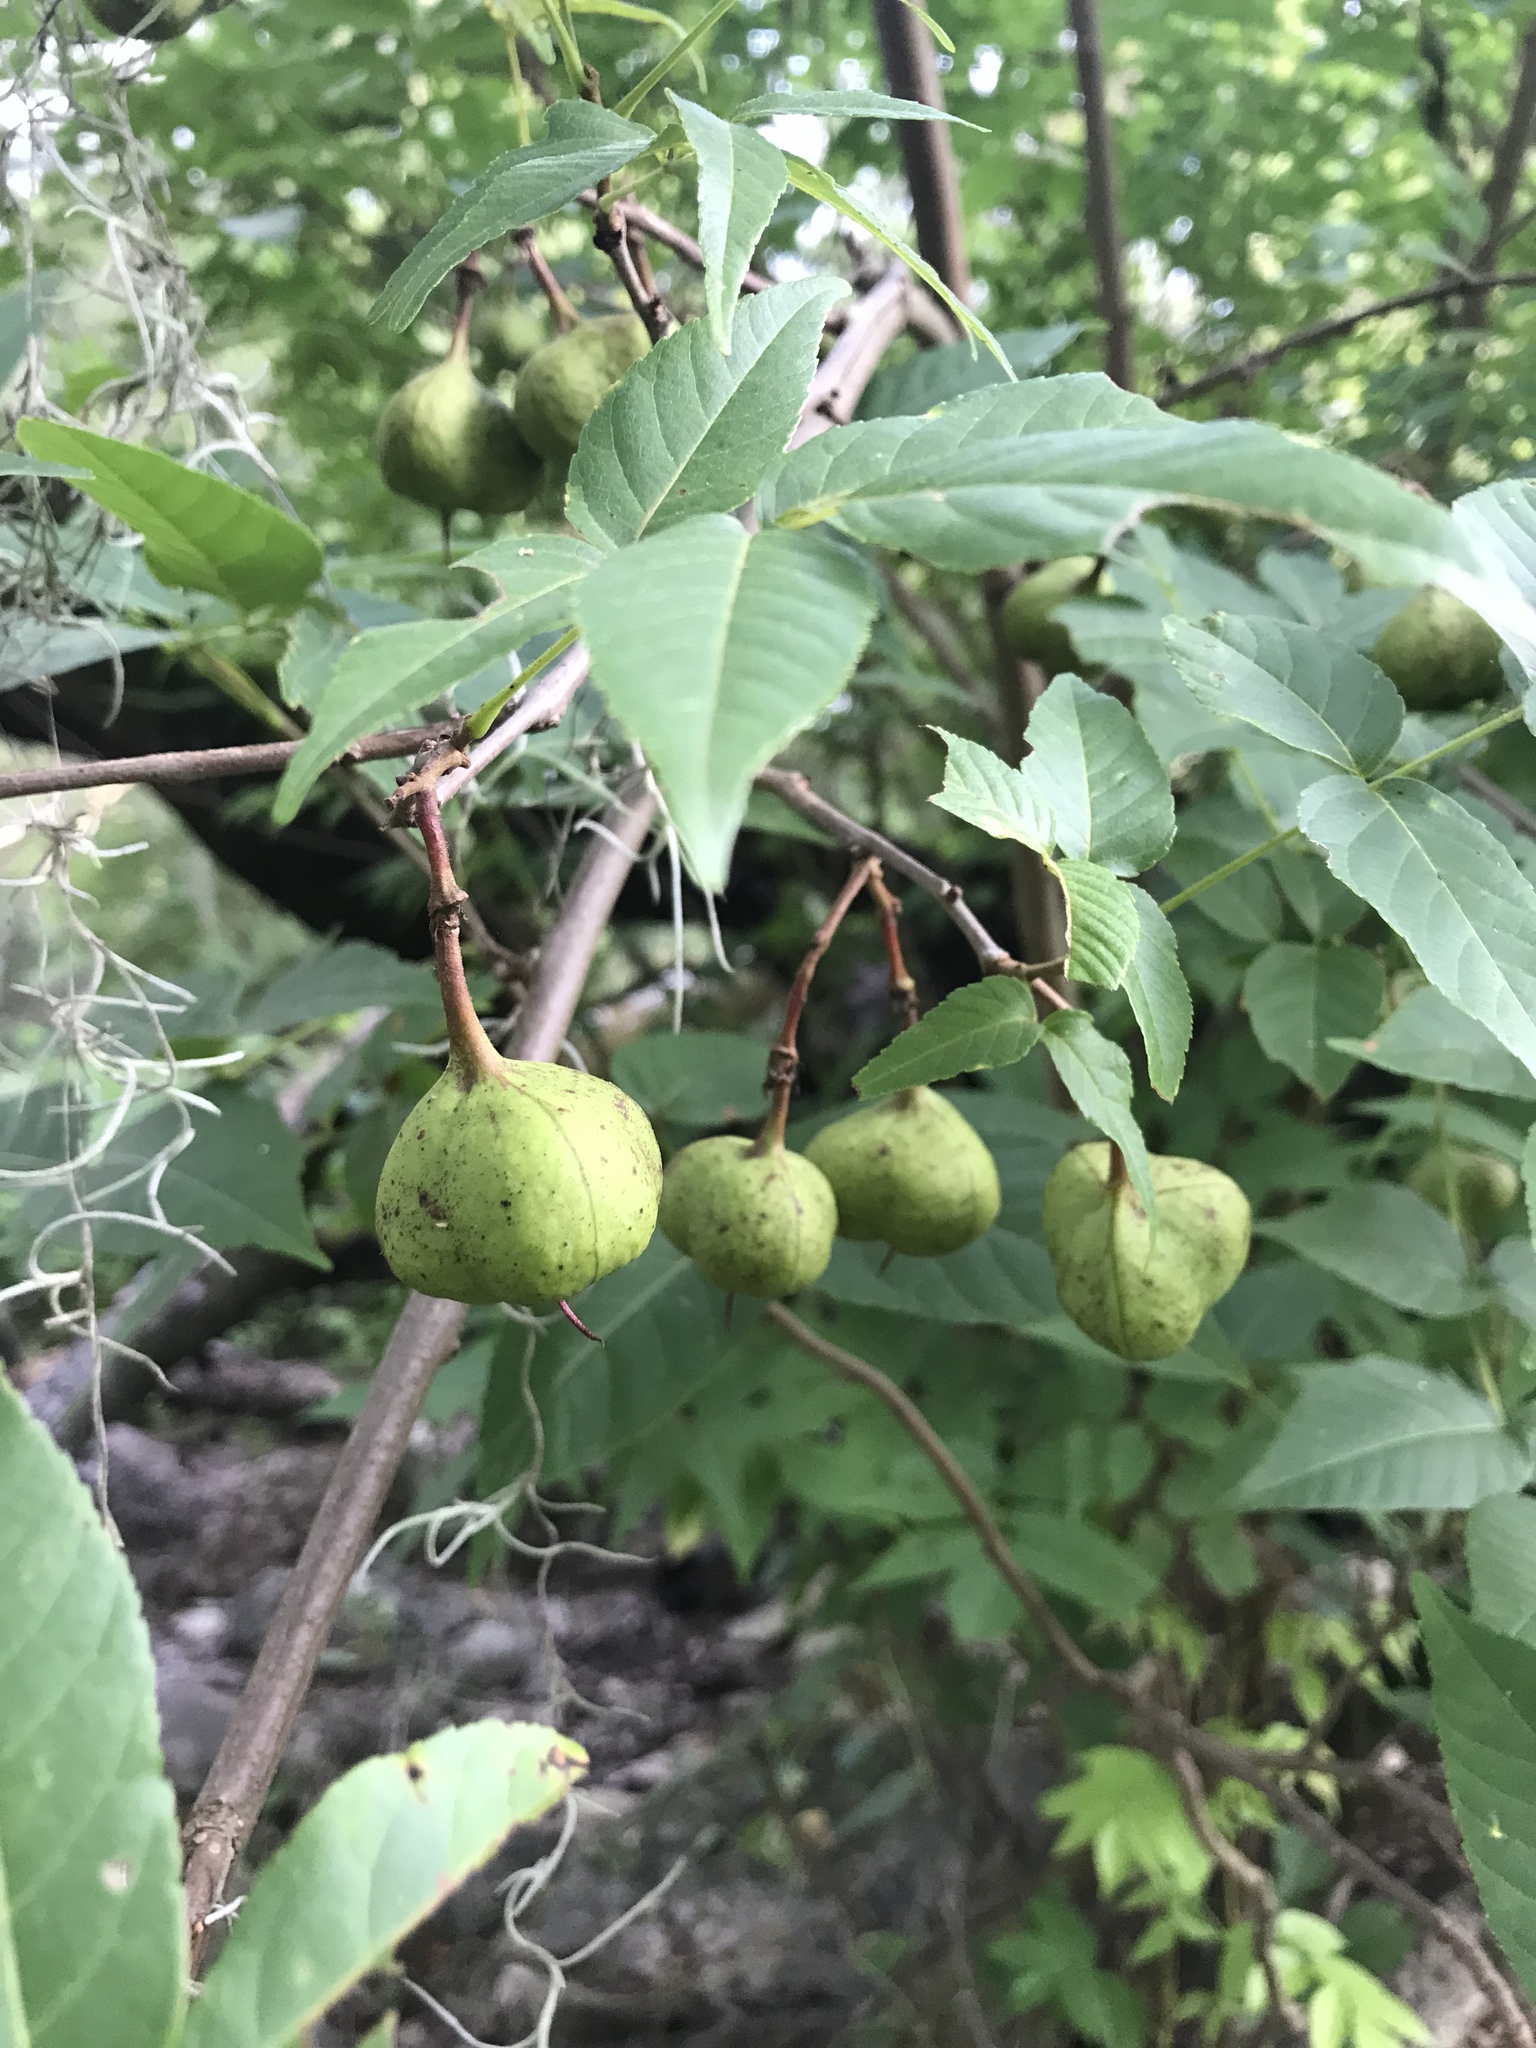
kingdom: Plantae
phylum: Tracheophyta
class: Magnoliopsida
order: Sapindales
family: Sapindaceae
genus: Ungnadia
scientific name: Ungnadia speciosa
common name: Texas-buckeye
